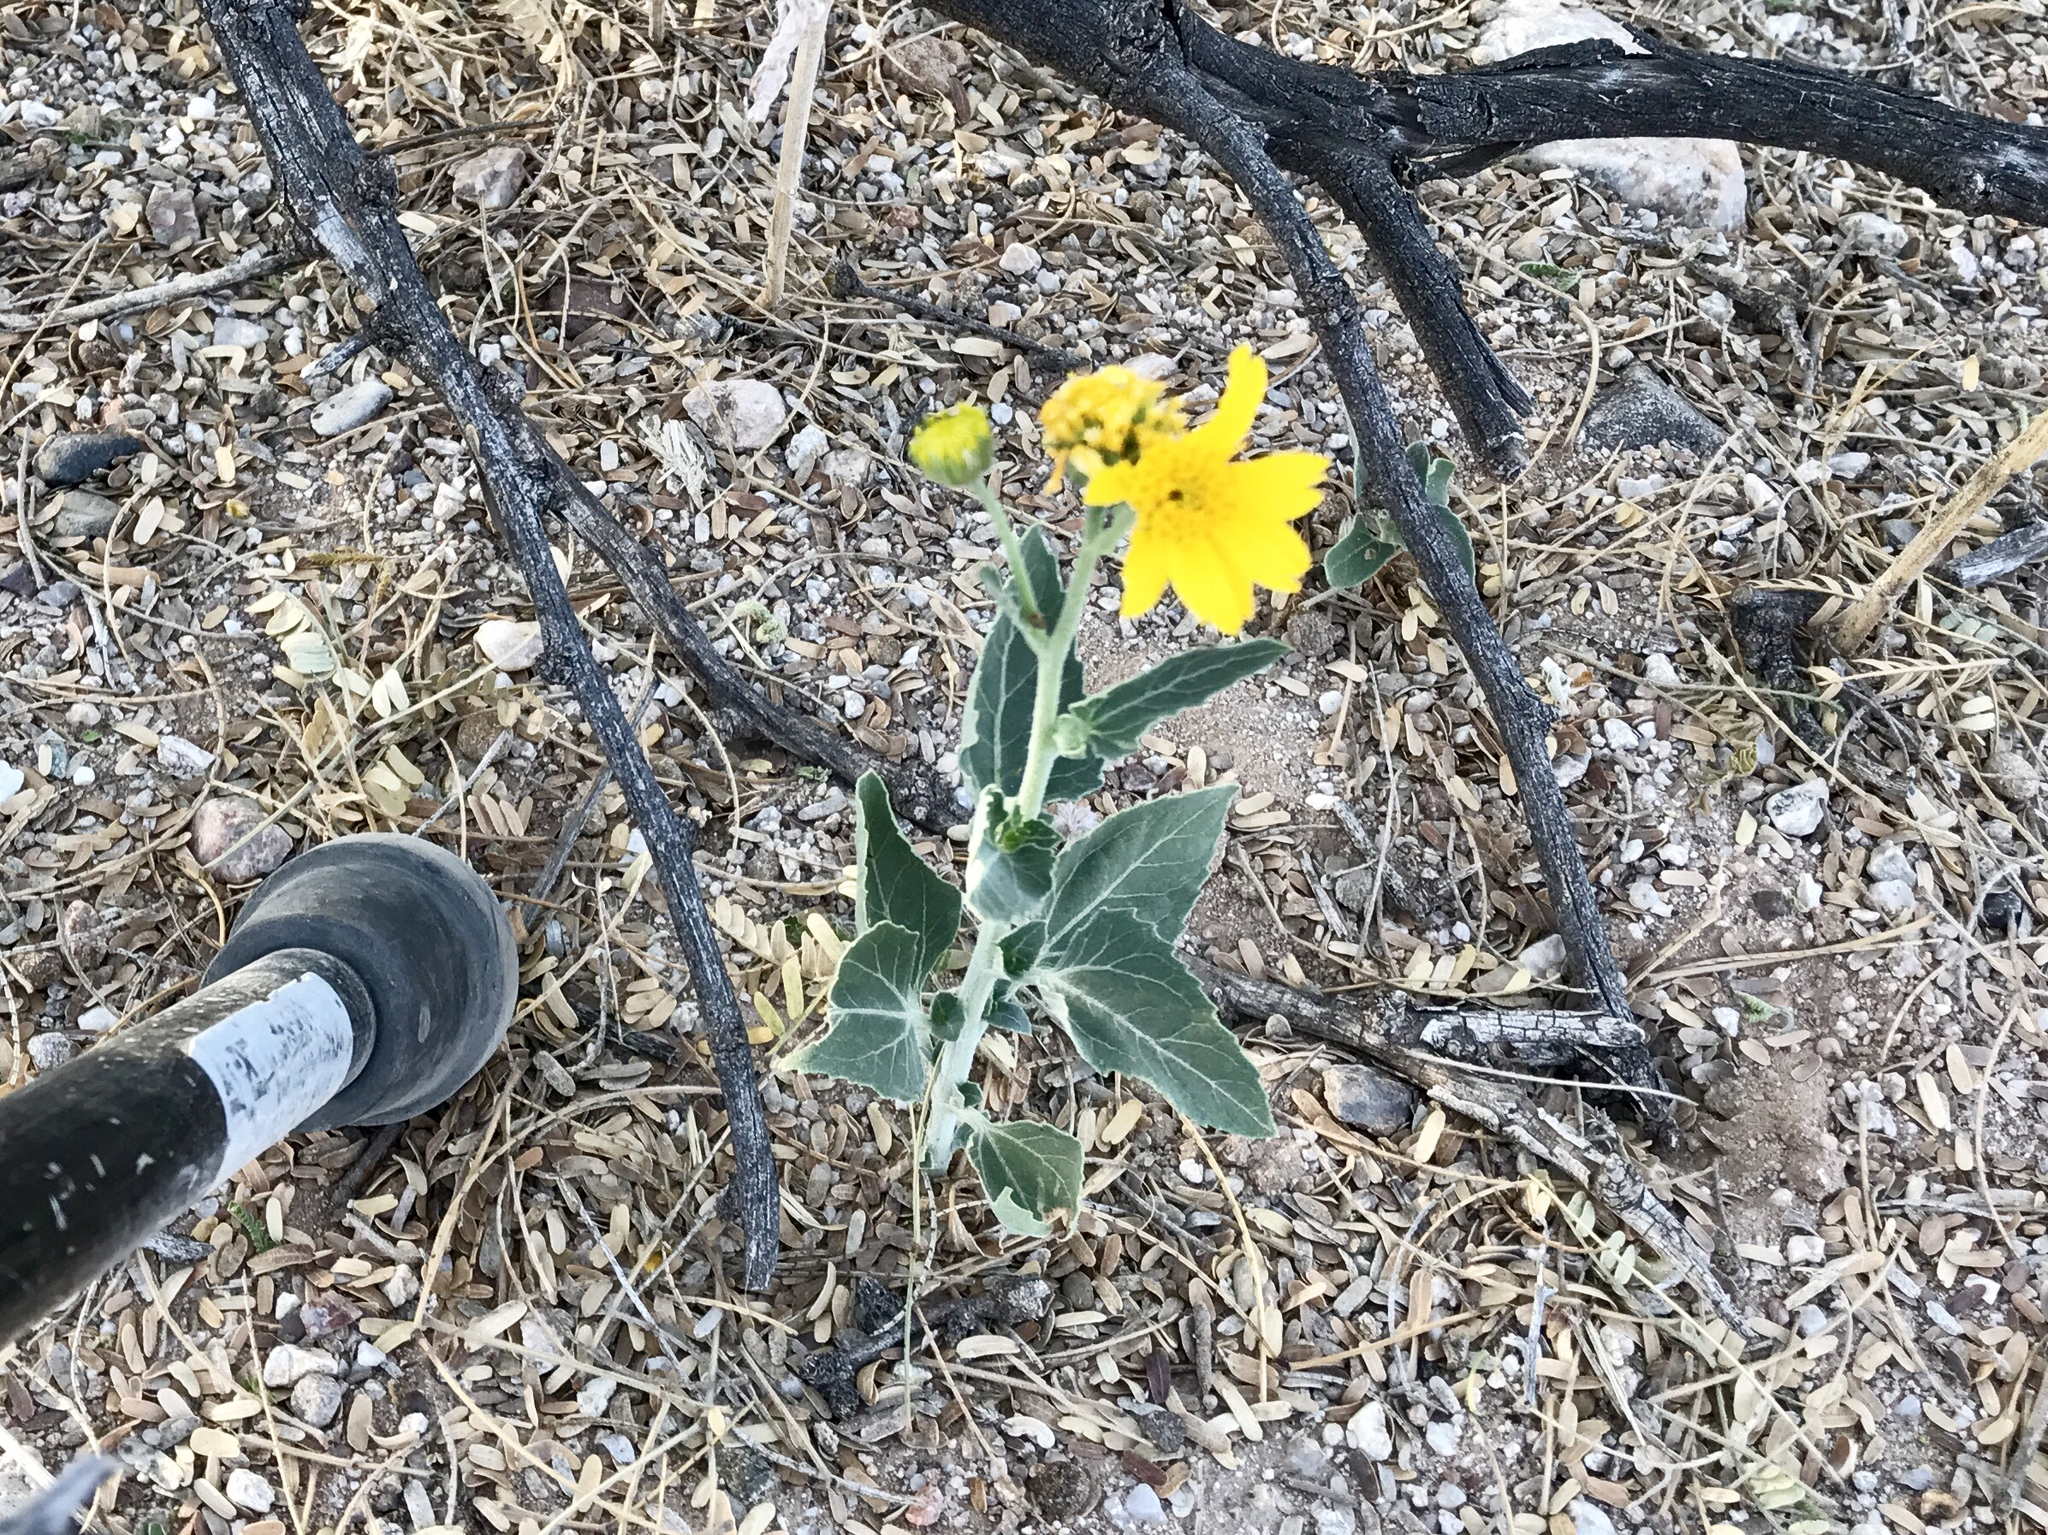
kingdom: Plantae
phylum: Tracheophyta
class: Magnoliopsida
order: Asterales
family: Asteraceae
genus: Verbesina
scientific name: Verbesina encelioides
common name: Golden crownbeard
